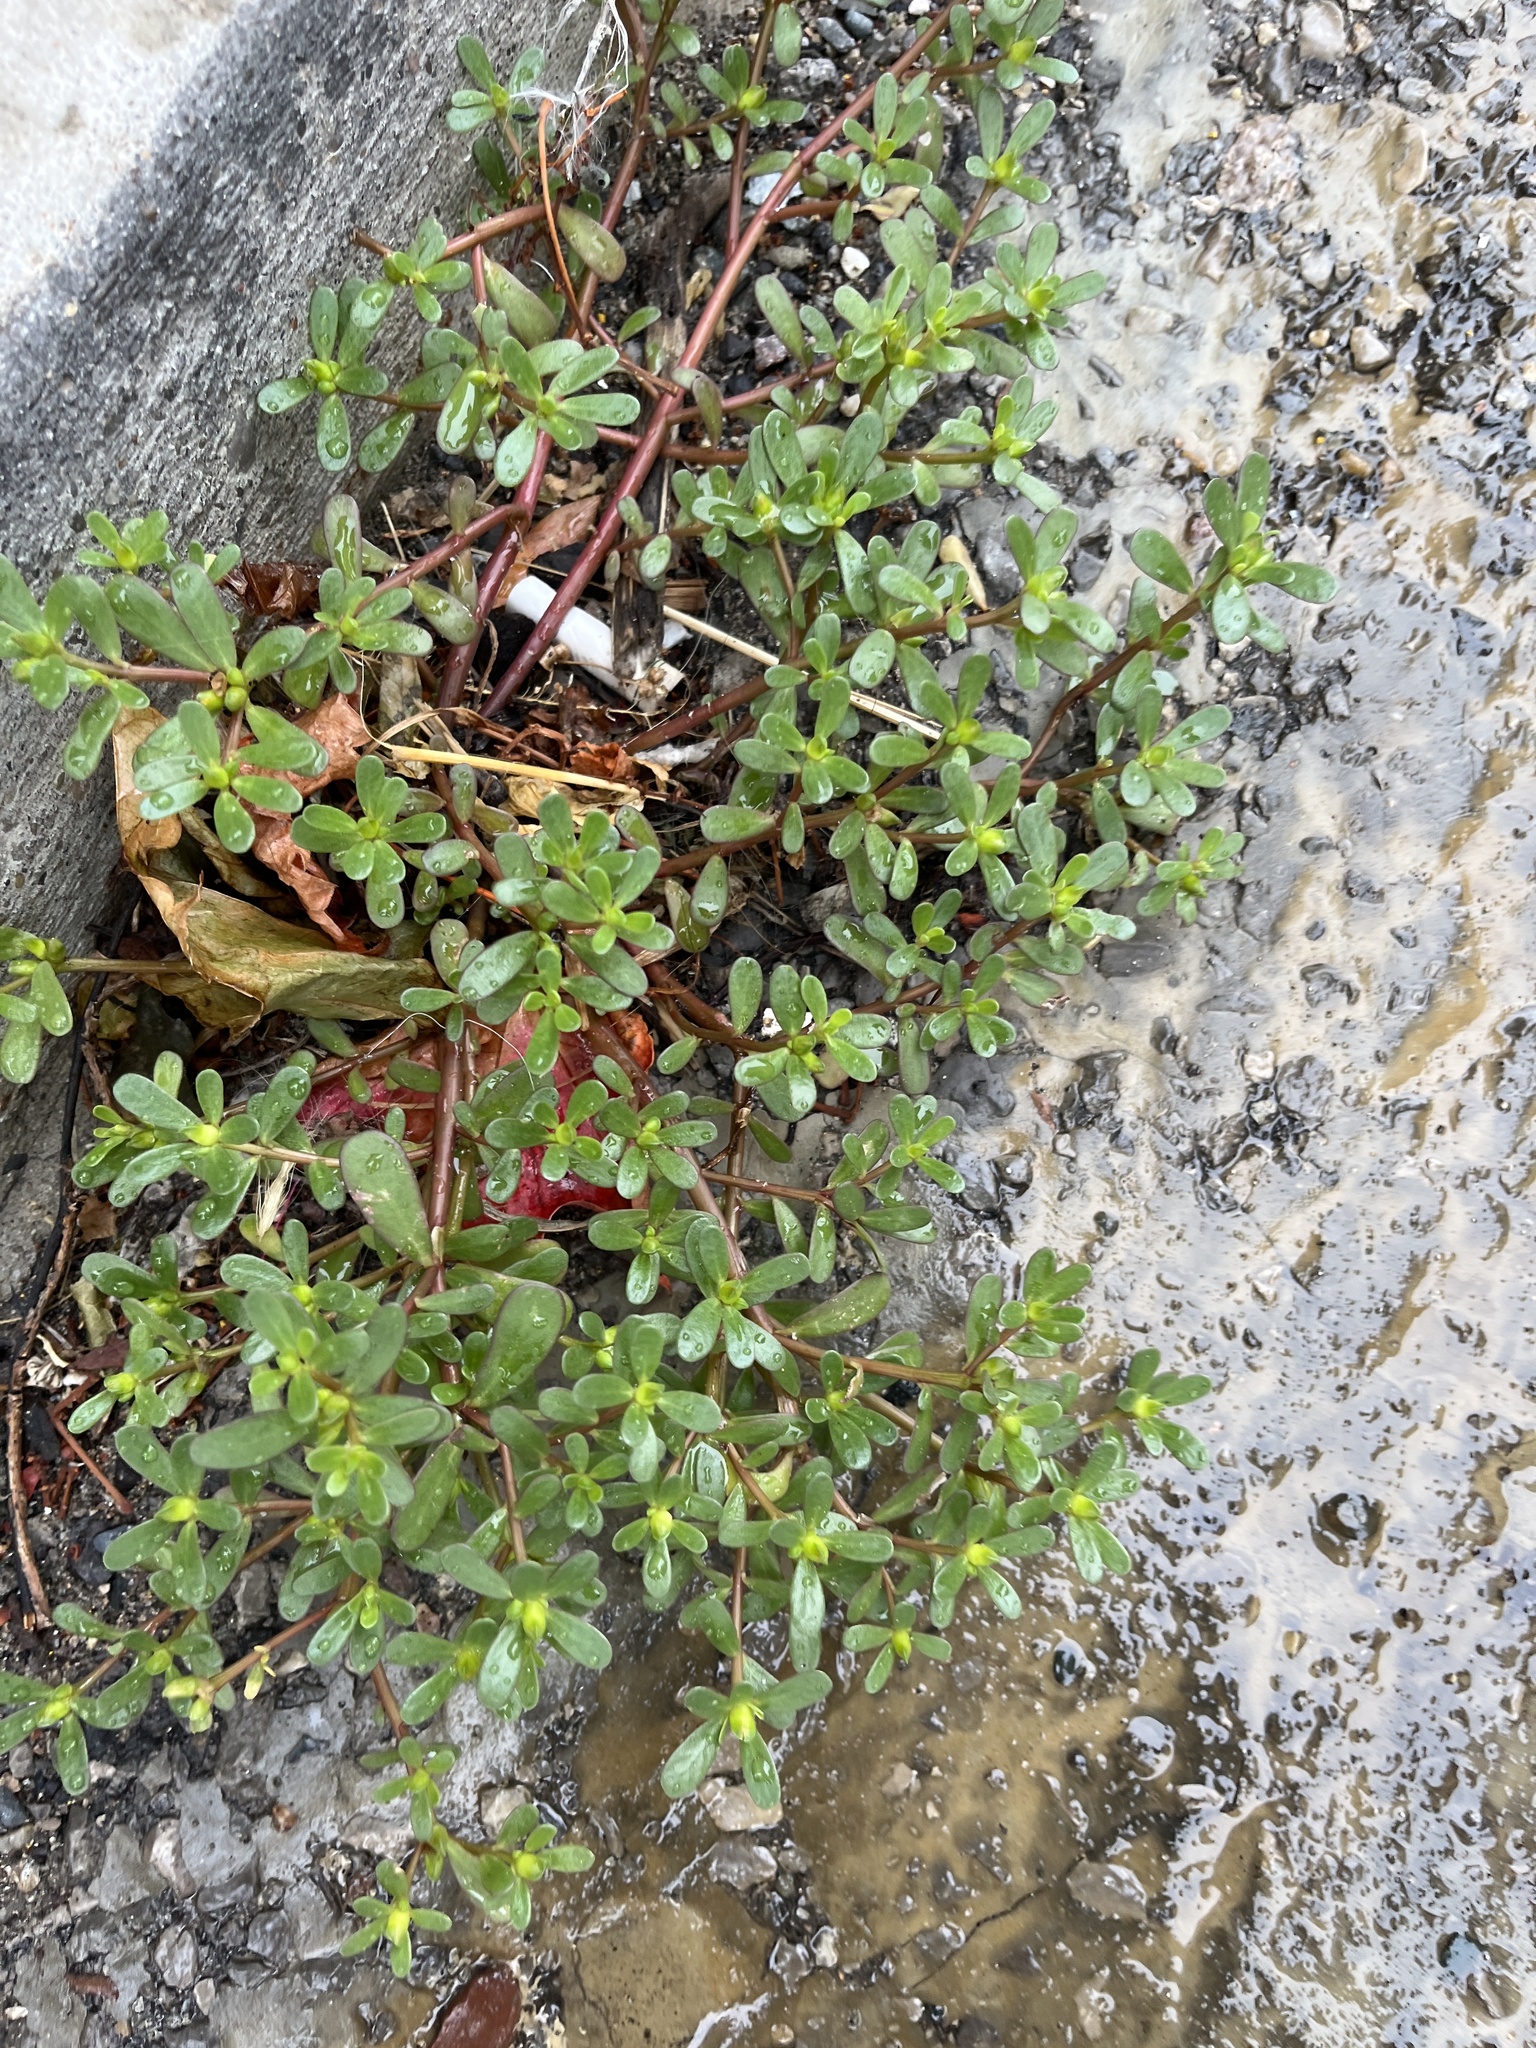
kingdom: Plantae
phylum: Tracheophyta
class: Magnoliopsida
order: Caryophyllales
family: Portulacaceae
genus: Portulaca
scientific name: Portulaca oleracea
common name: Common purslane
